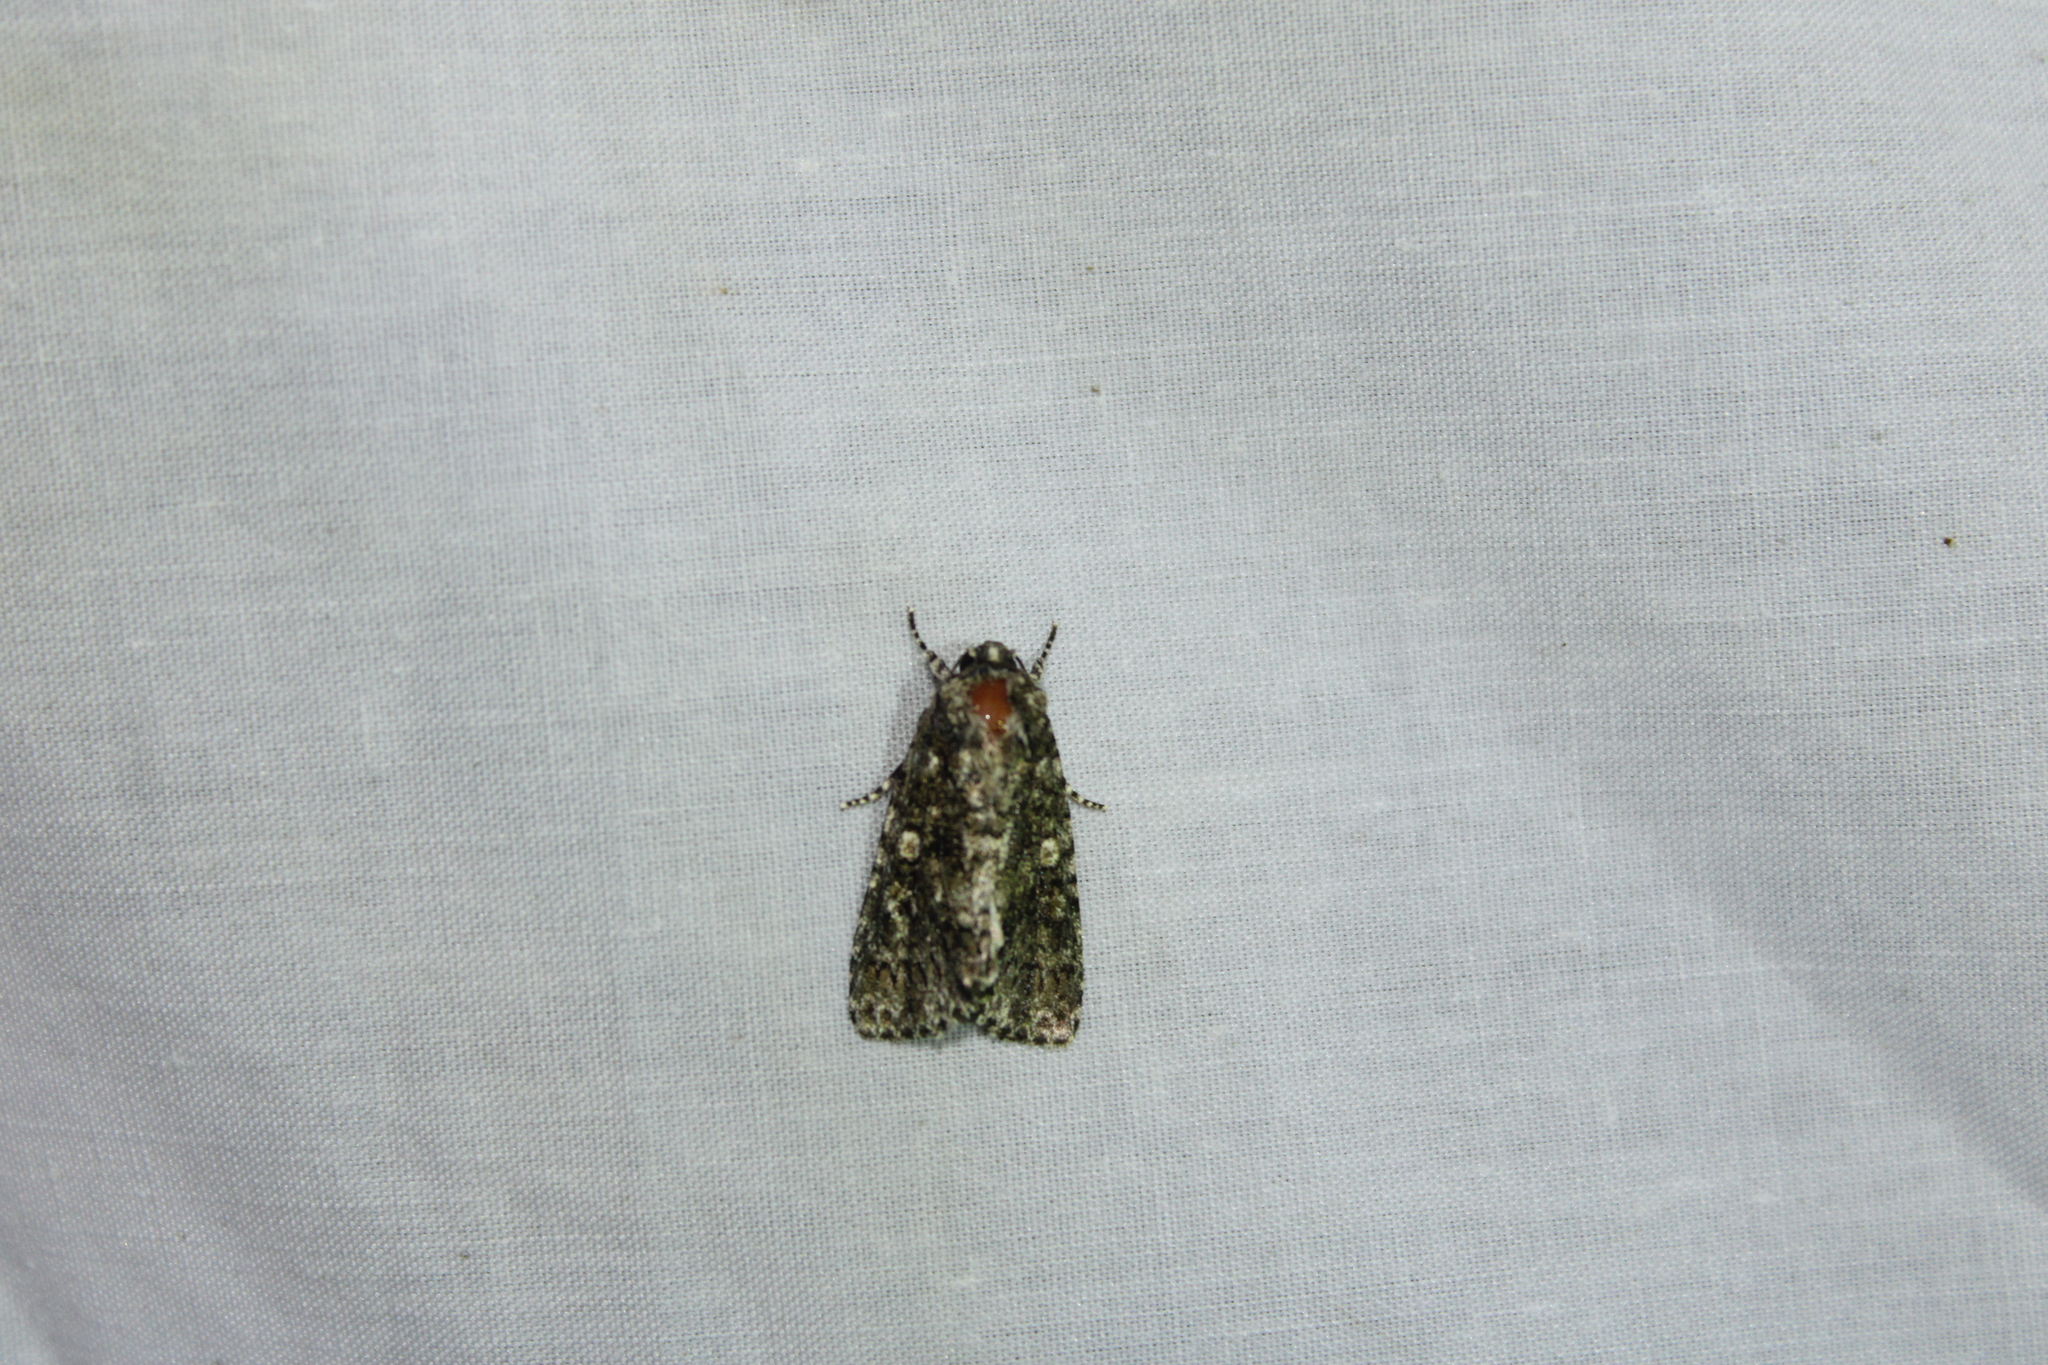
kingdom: Animalia
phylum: Arthropoda
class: Insecta
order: Lepidoptera
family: Noctuidae
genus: Acronicta
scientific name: Acronicta afflicta
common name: Afflicted dagger moth
